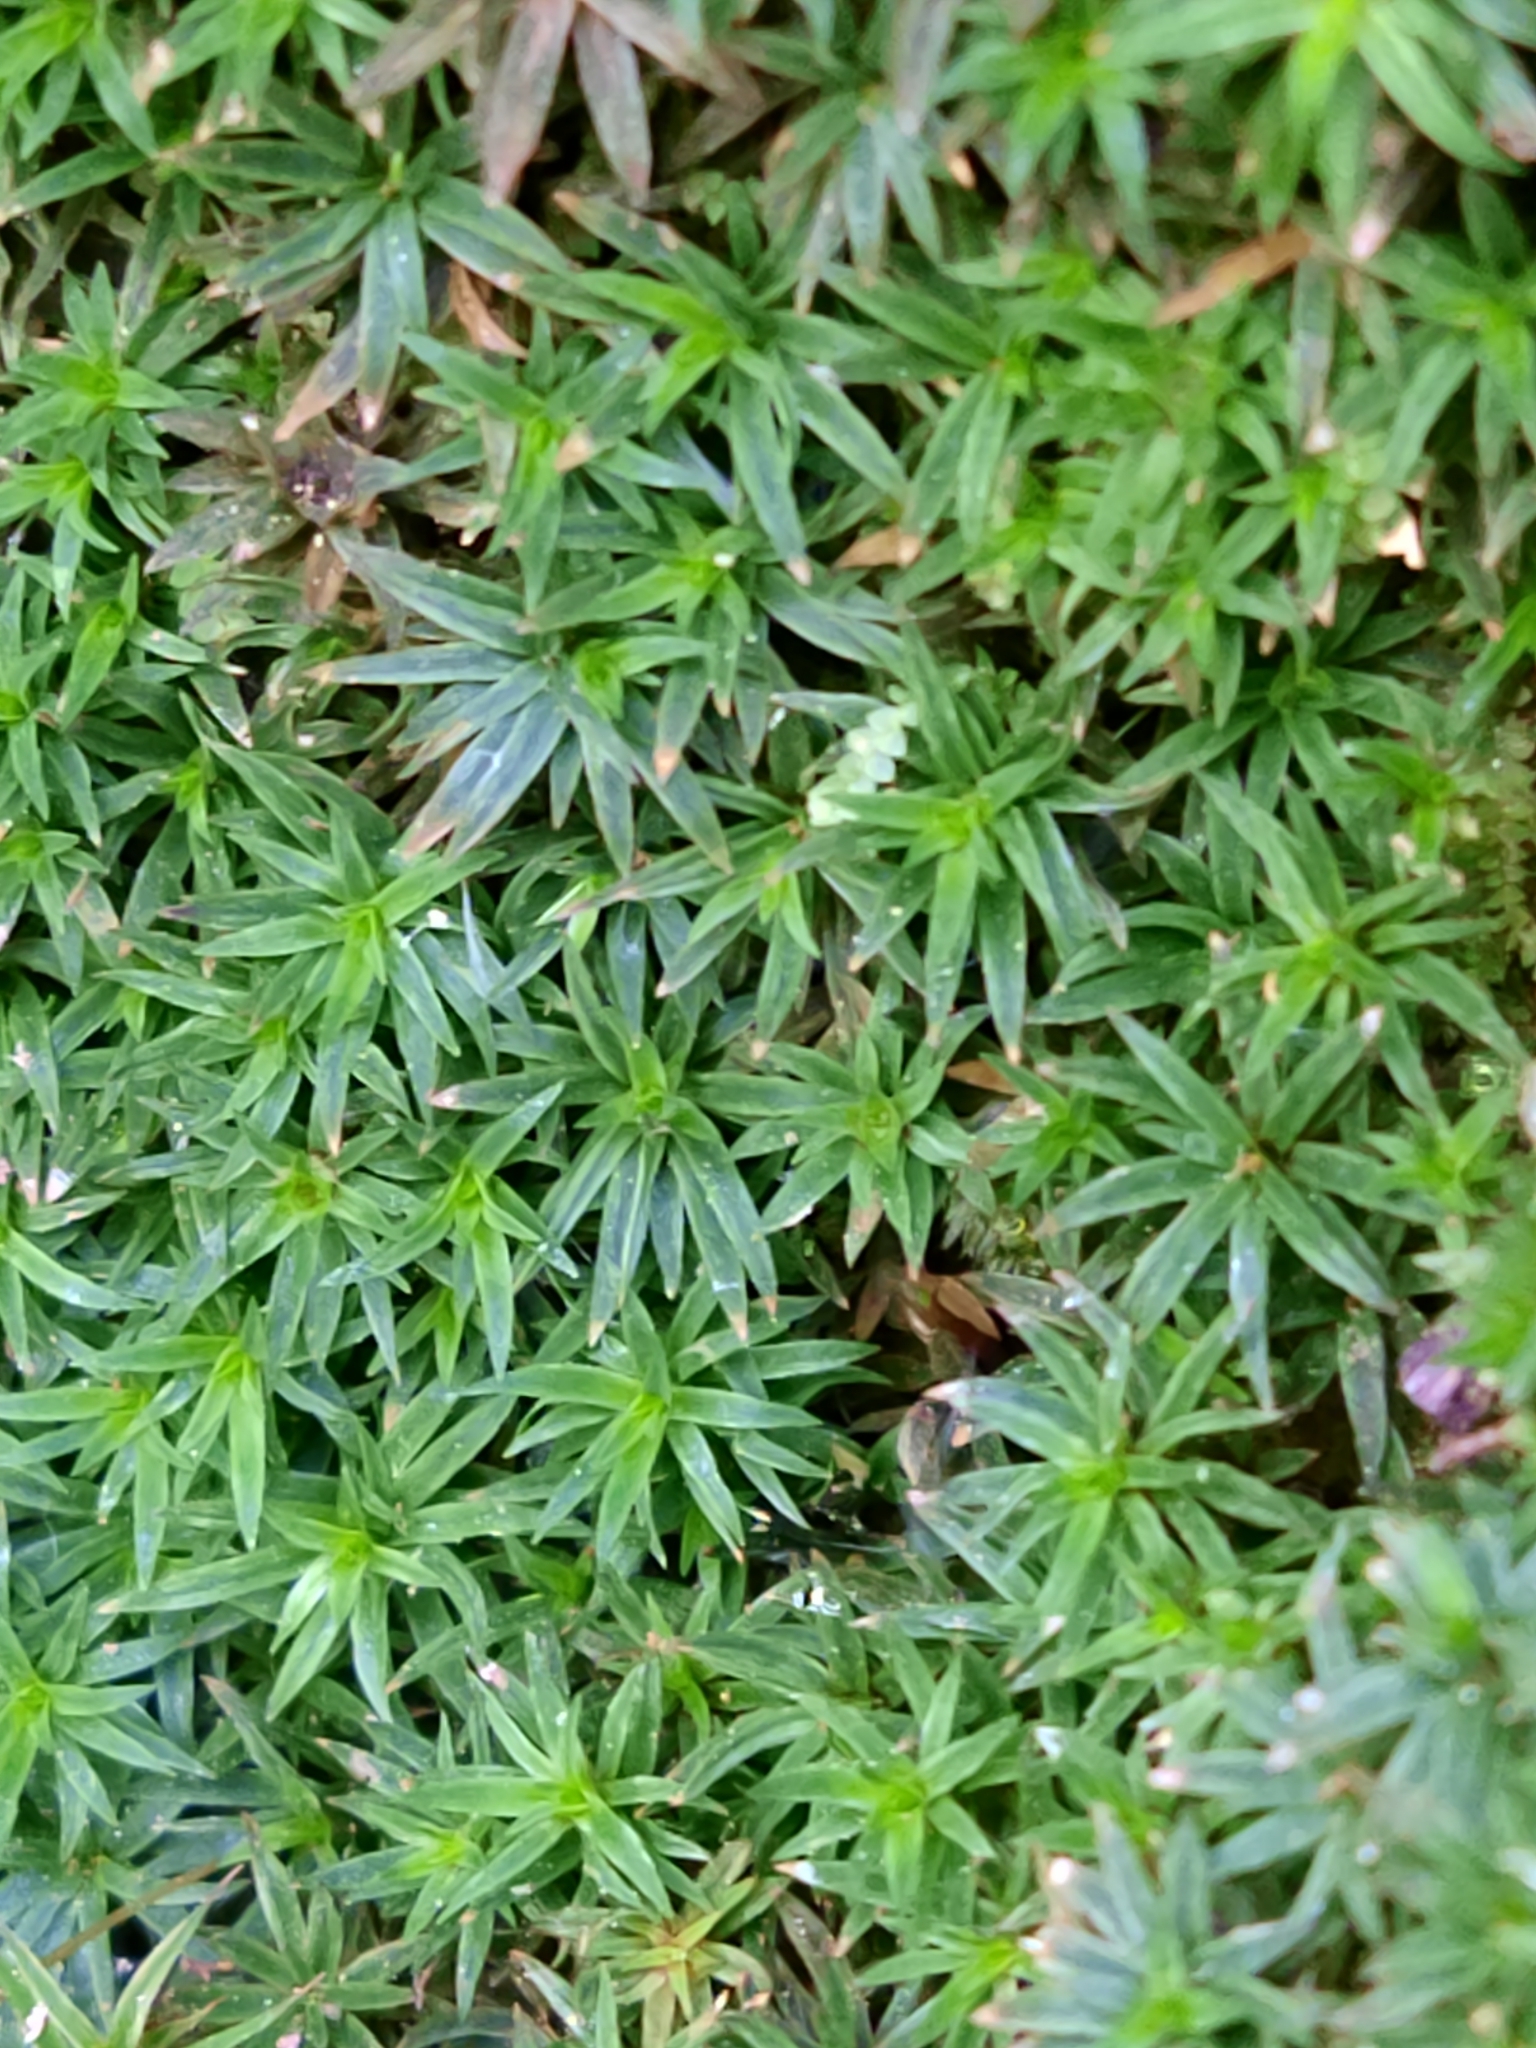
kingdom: Plantae
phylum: Bryophyta
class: Polytrichopsida
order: Polytrichales
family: Polytrichaceae
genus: Pogonatum
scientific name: Pogonatum aloides
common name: Aloe haircap
